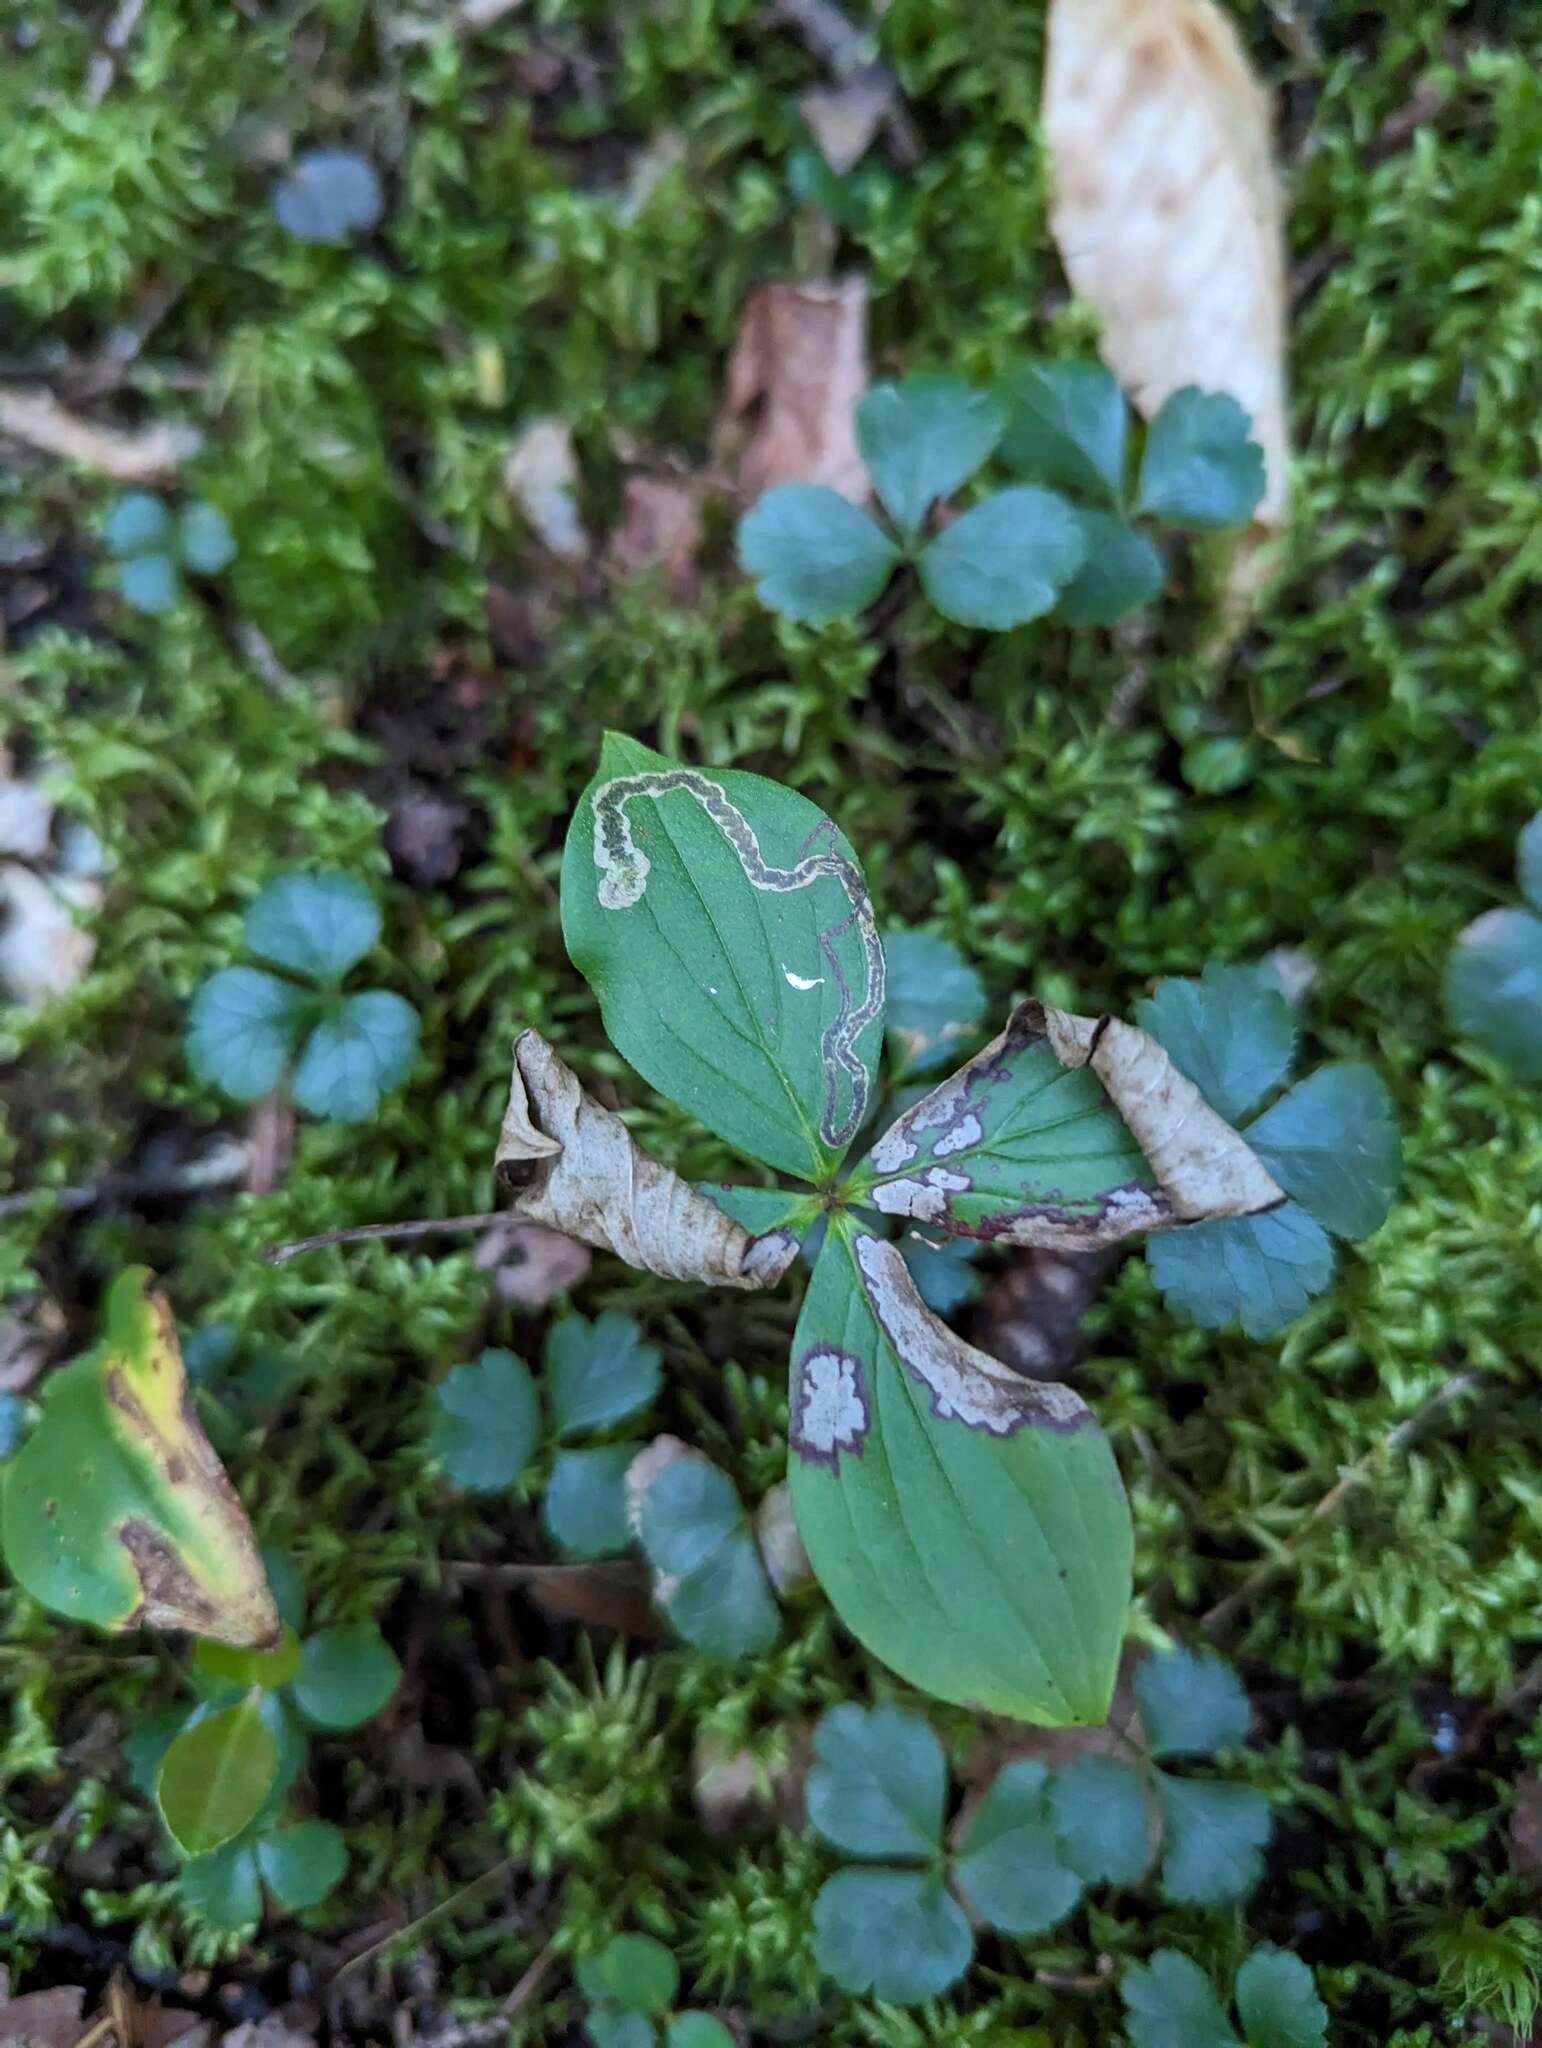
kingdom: Animalia
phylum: Arthropoda
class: Insecta
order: Diptera
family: Agromyzidae
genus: Phytomyza
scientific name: Phytomyza agromyzina
